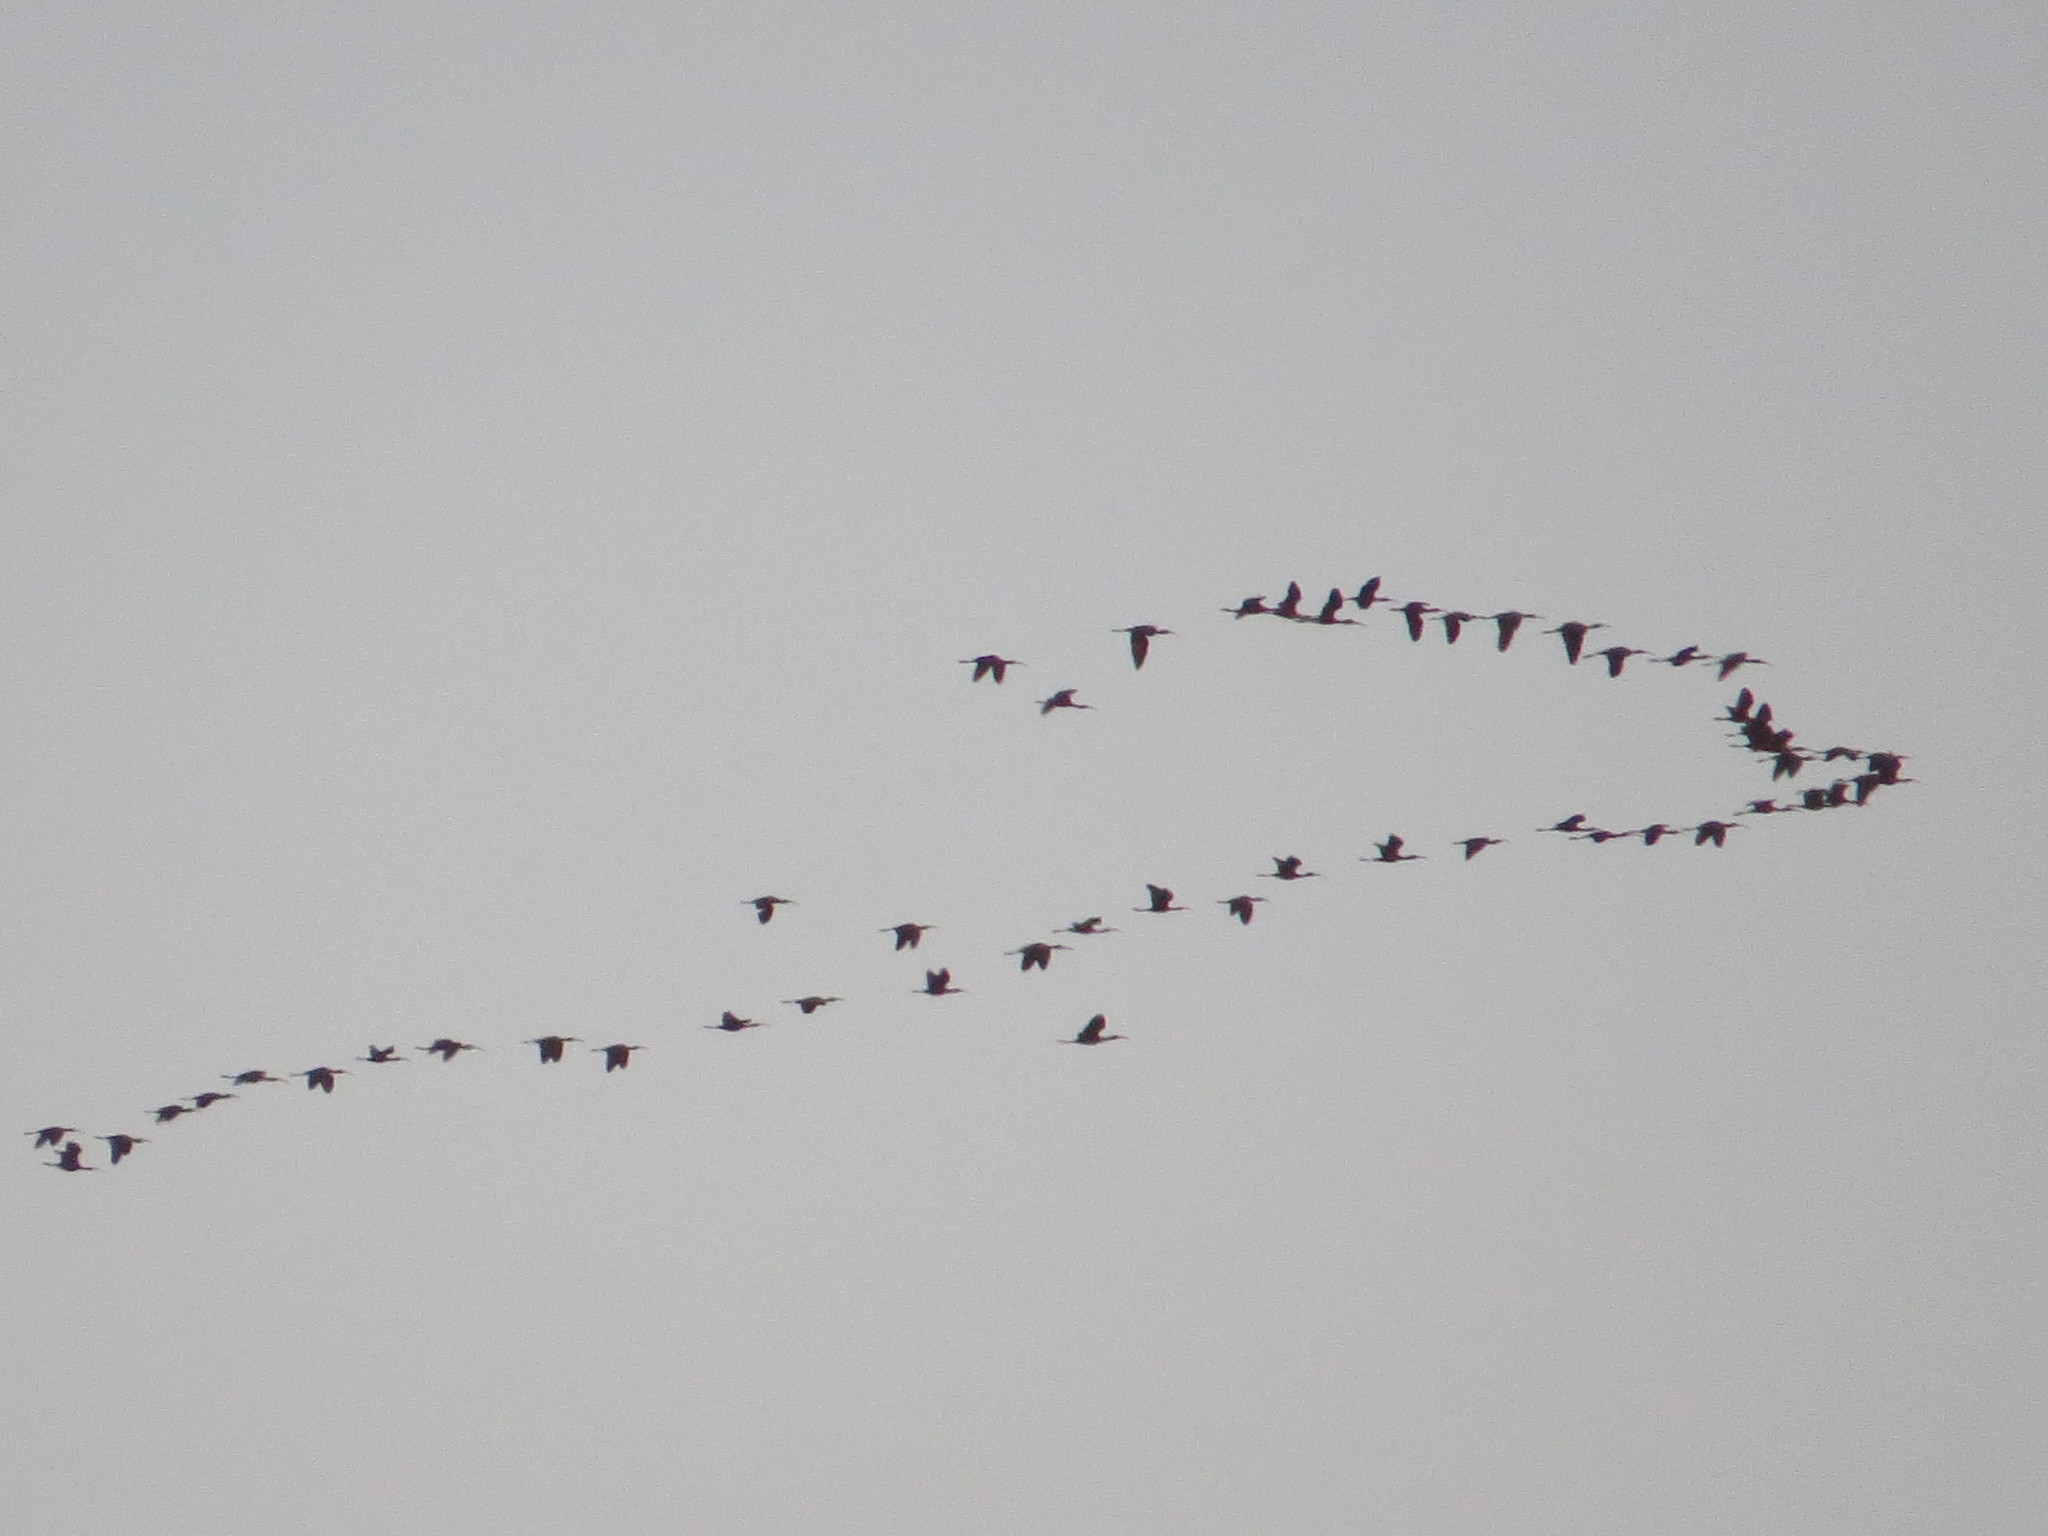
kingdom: Animalia
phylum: Chordata
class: Aves
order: Pelecaniformes
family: Threskiornithidae
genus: Plegadis
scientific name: Plegadis chihi
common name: White-faced ibis
